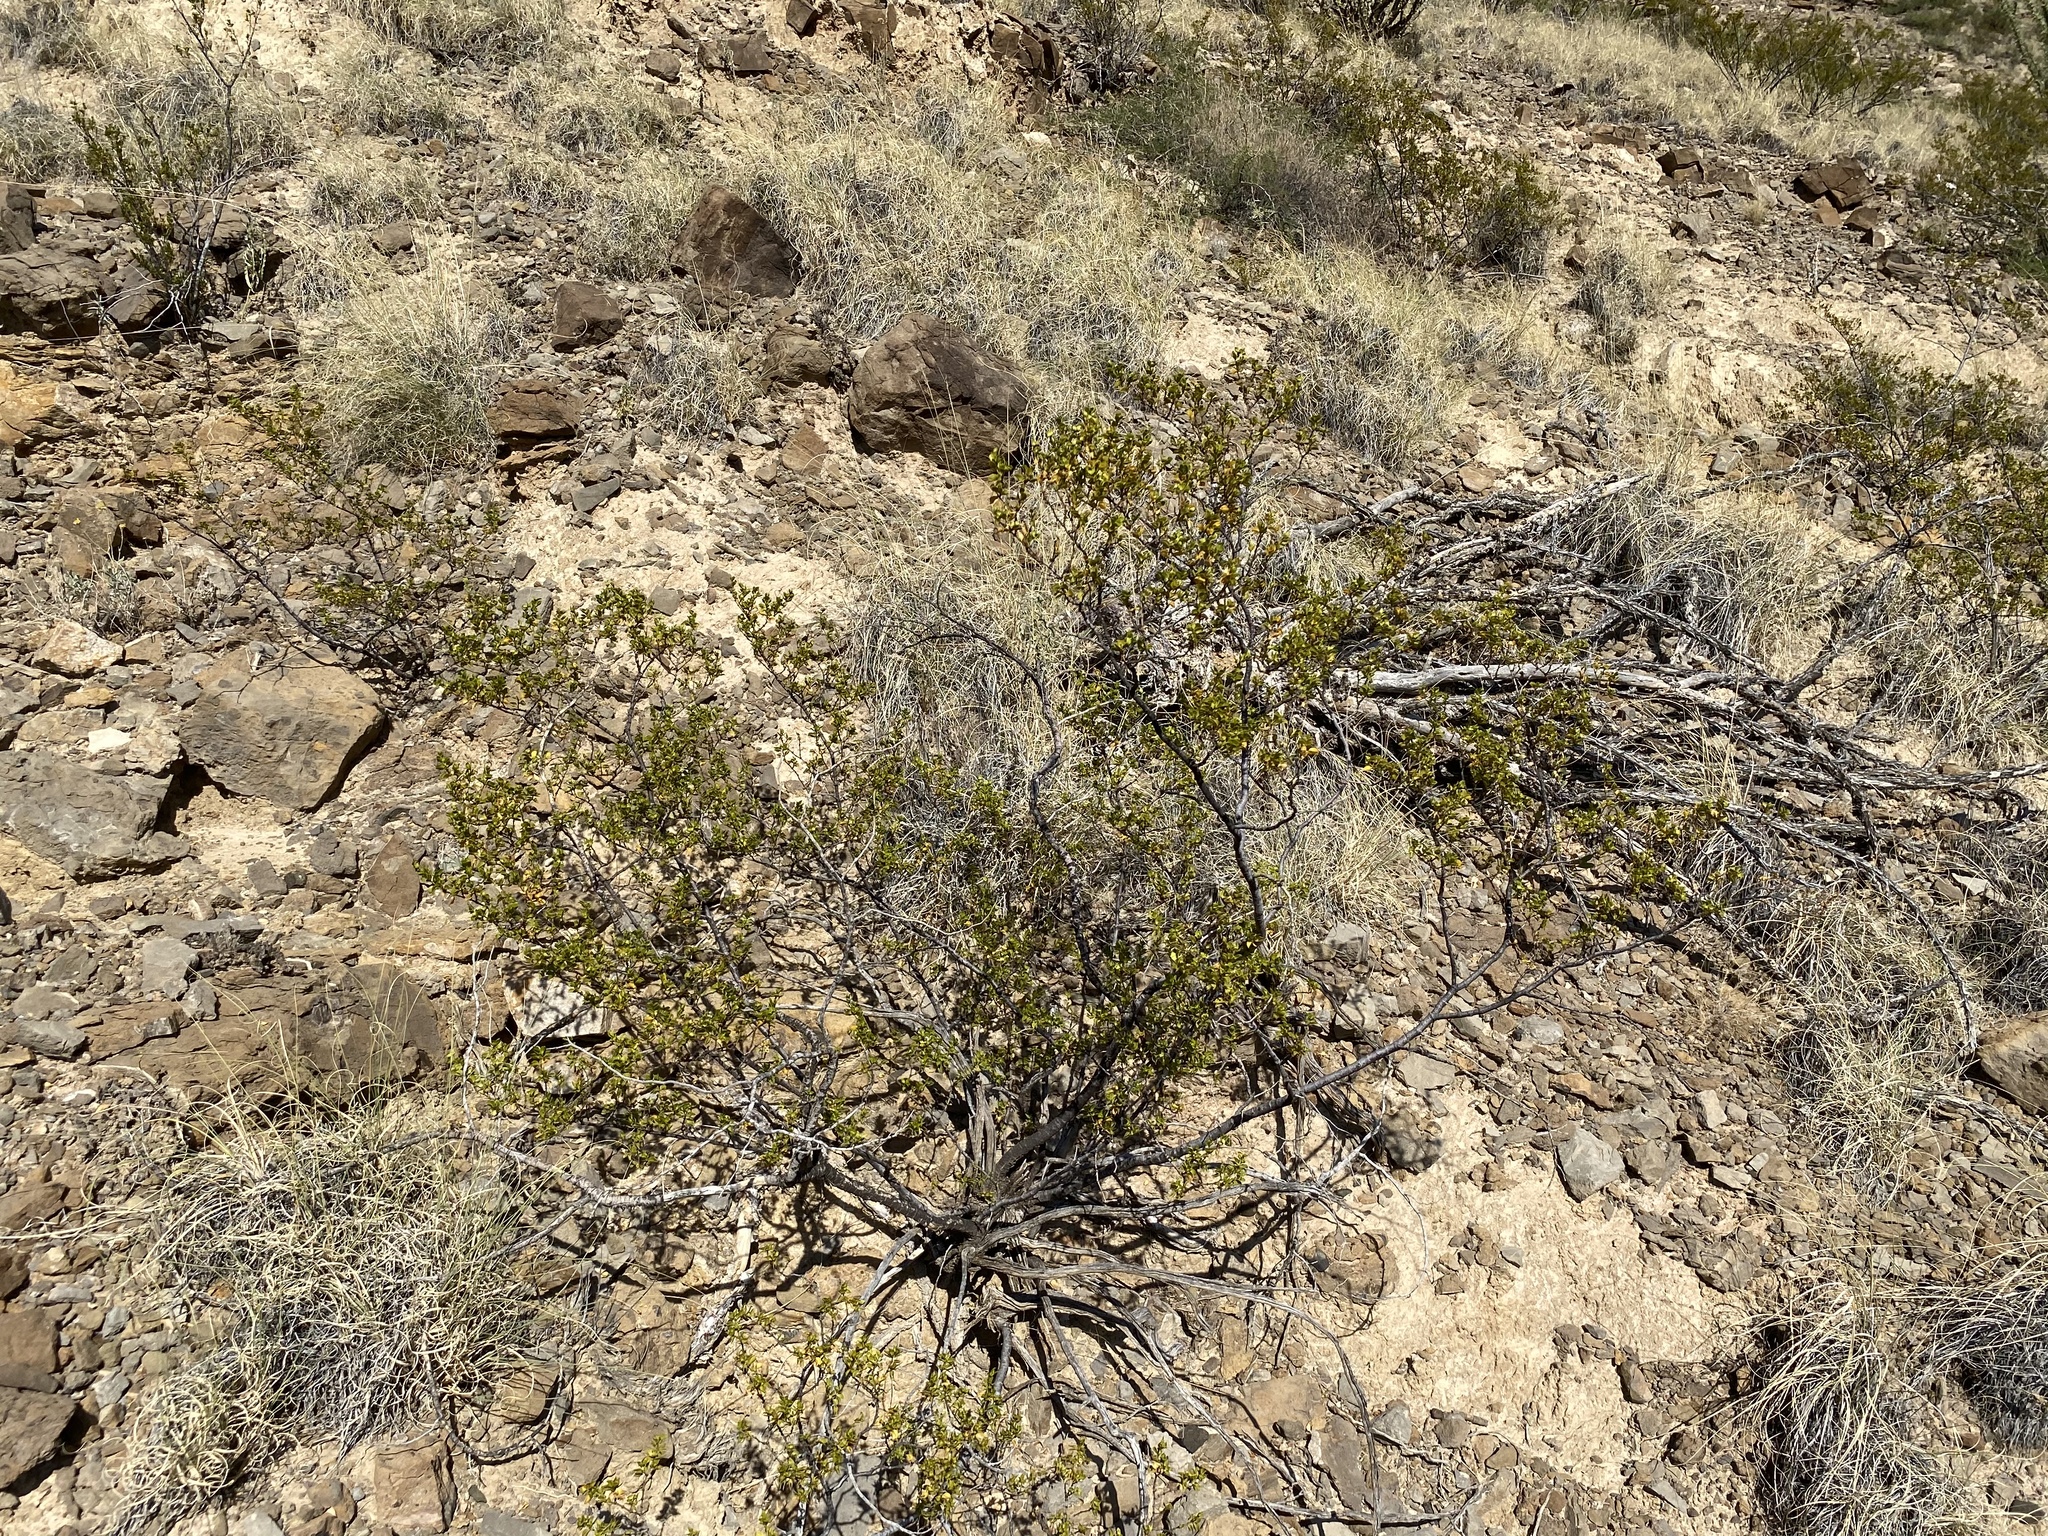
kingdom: Plantae
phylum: Tracheophyta
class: Magnoliopsida
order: Zygophyllales
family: Zygophyllaceae
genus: Larrea
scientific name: Larrea tridentata
